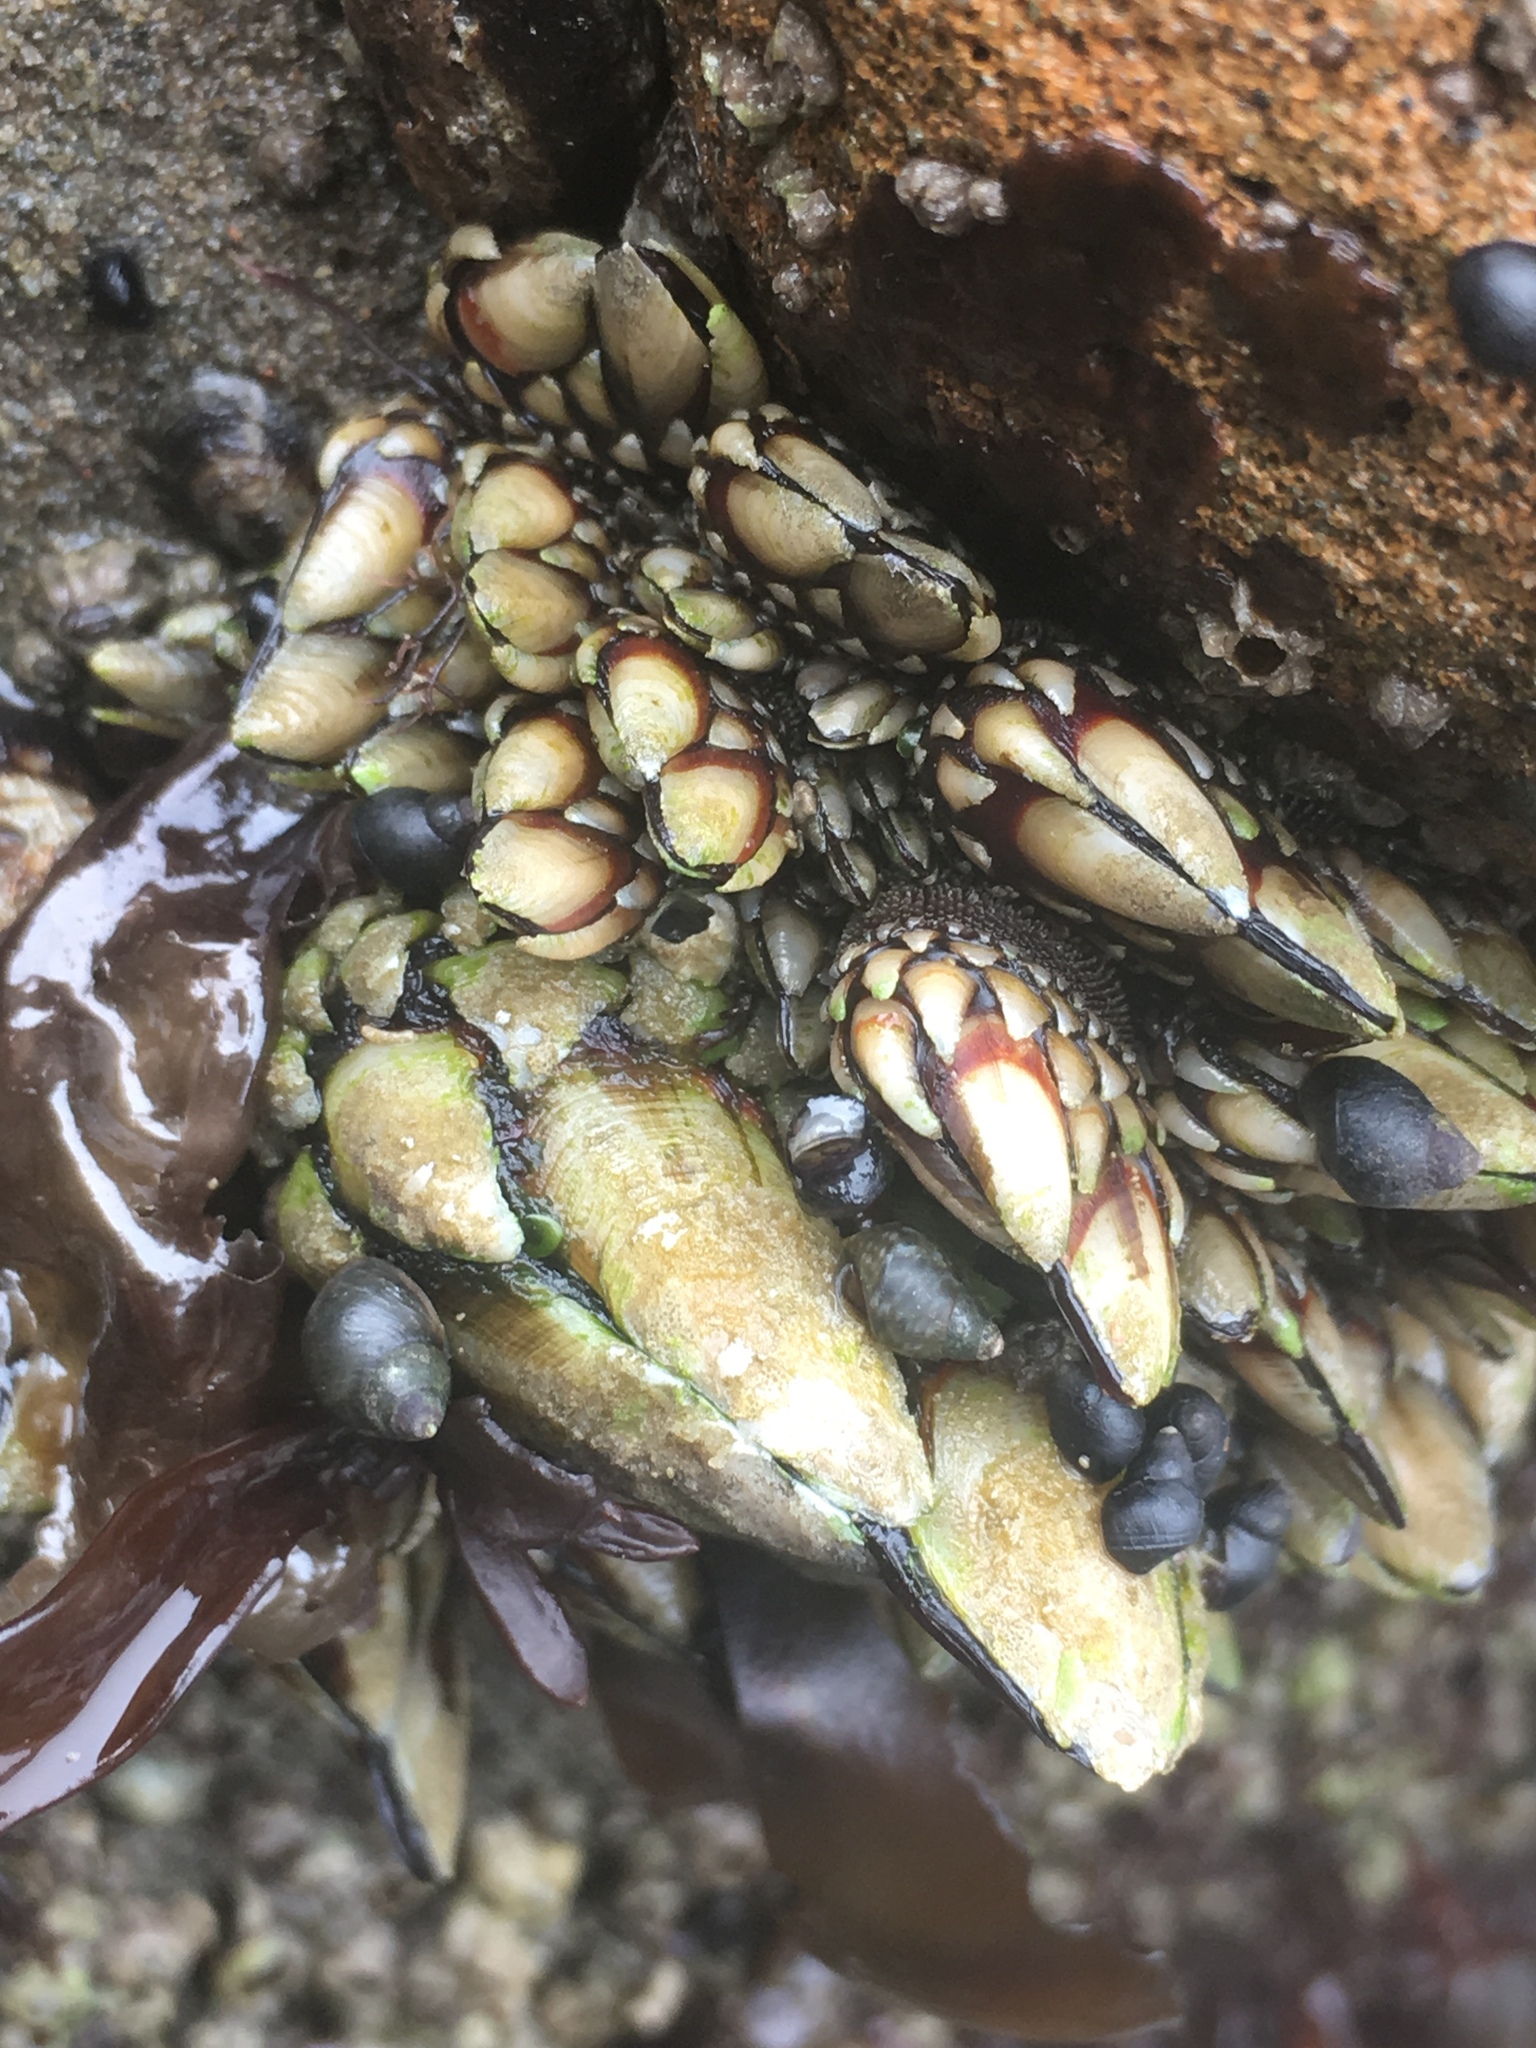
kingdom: Animalia
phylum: Arthropoda
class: Maxillopoda
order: Pedunculata
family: Pollicipedidae
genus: Pollicipes
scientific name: Pollicipes polymerus
